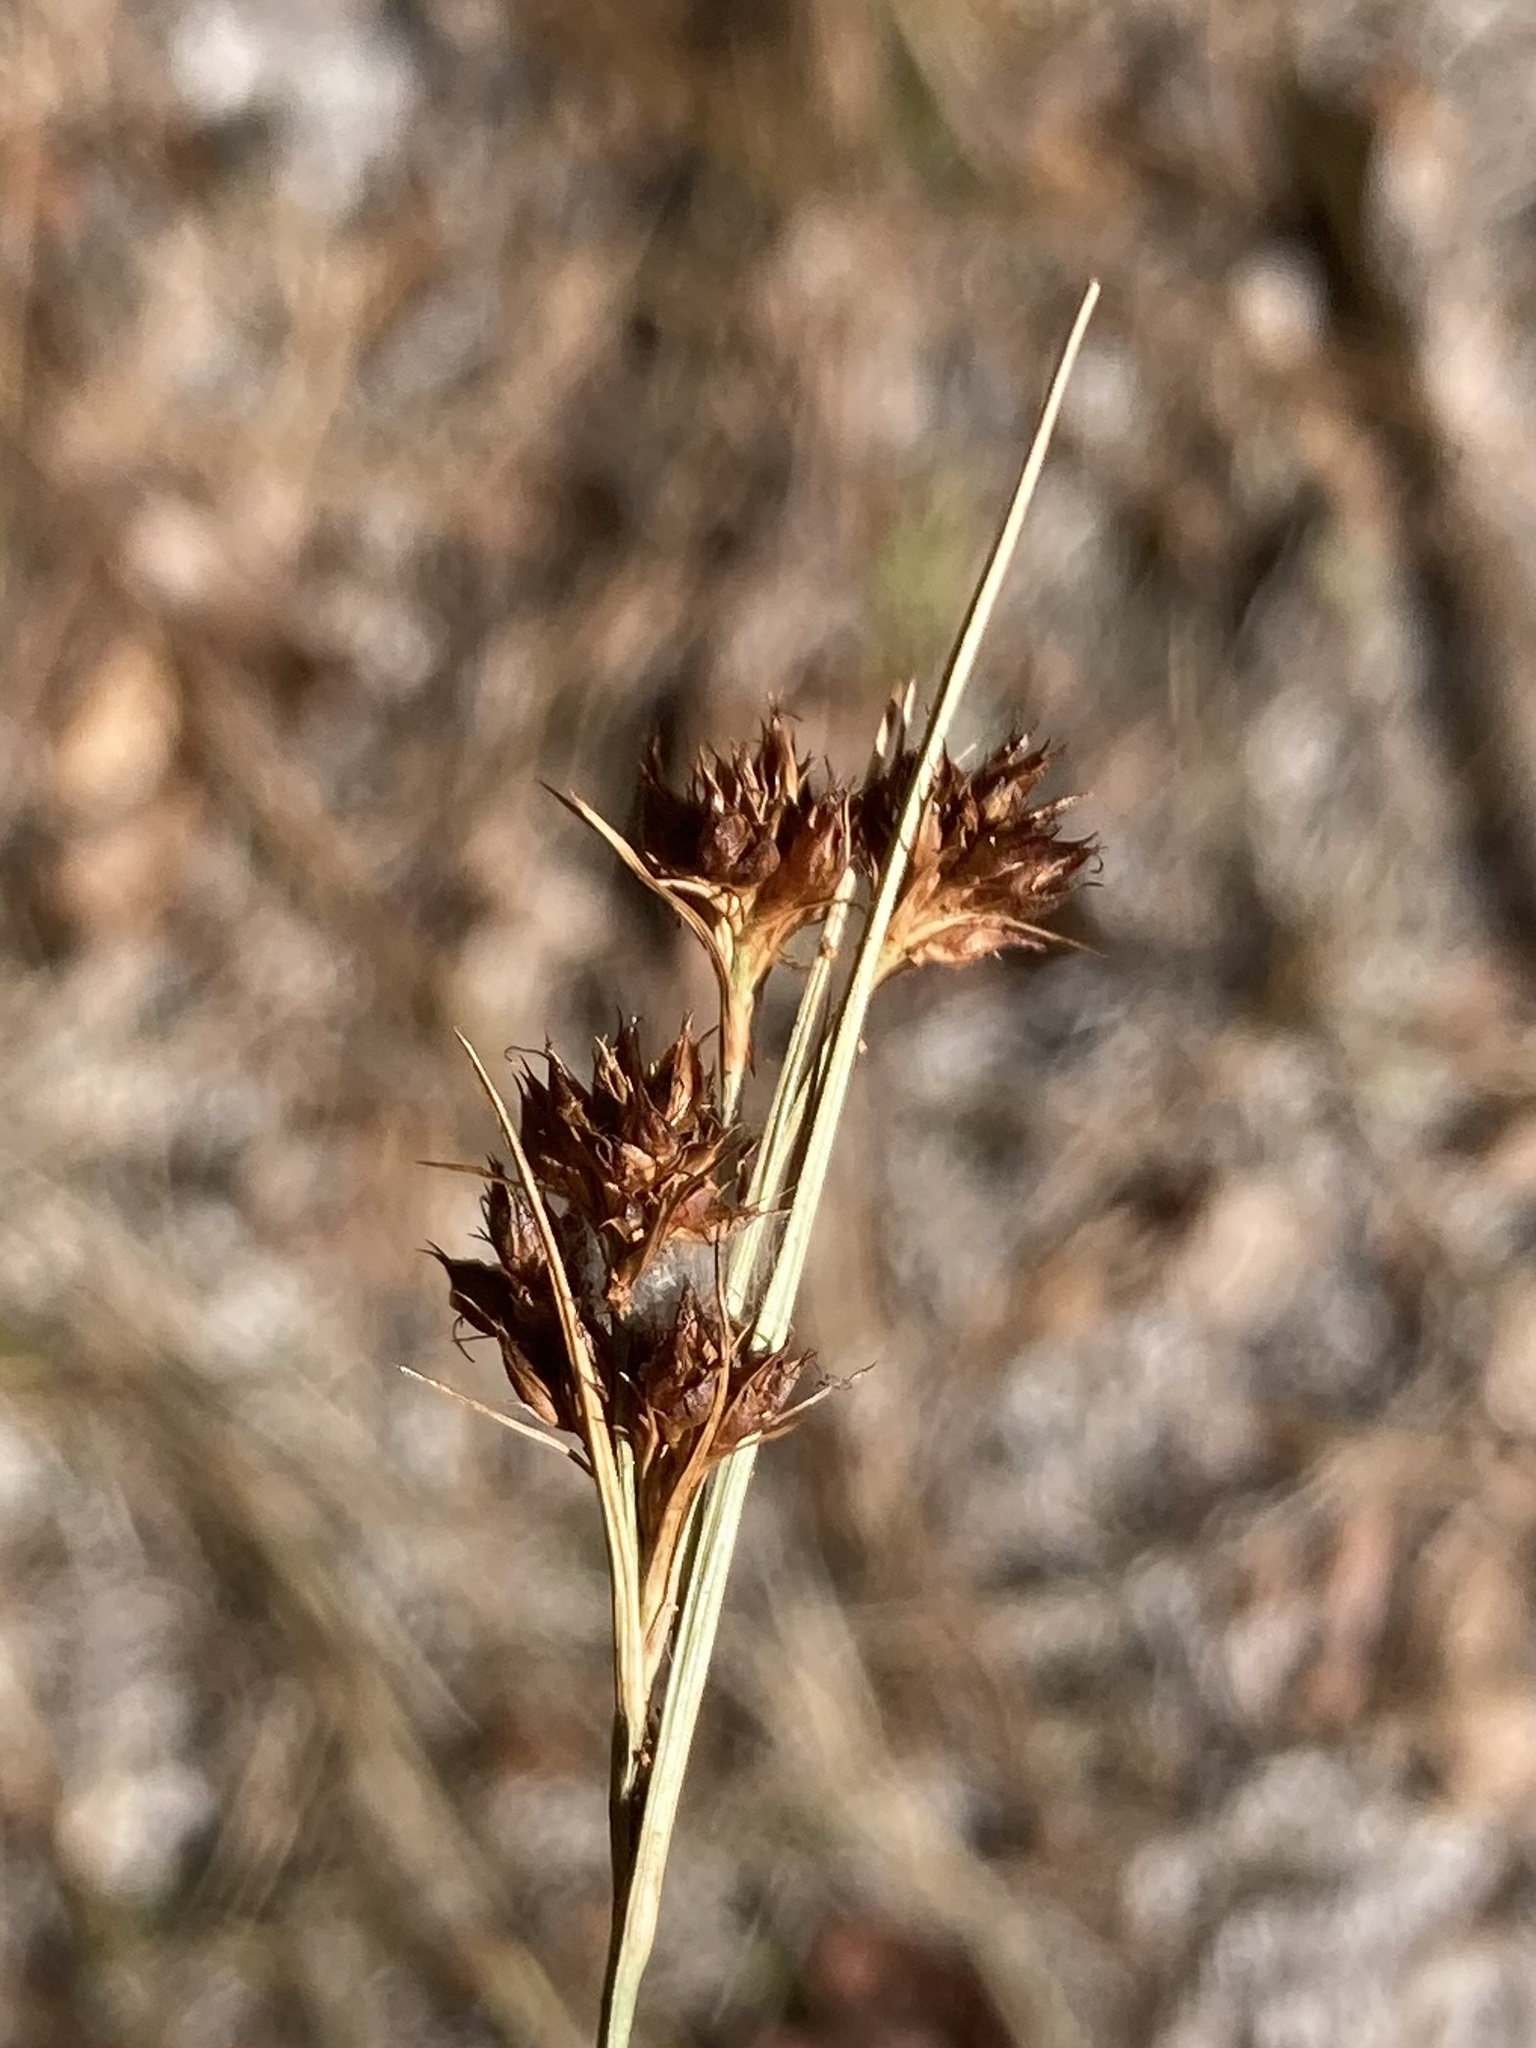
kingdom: Plantae
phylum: Tracheophyta
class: Liliopsida
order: Poales
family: Cyperaceae
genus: Rhynchospora
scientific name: Rhynchospora fascicularis
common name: Fascicled beak sedge
